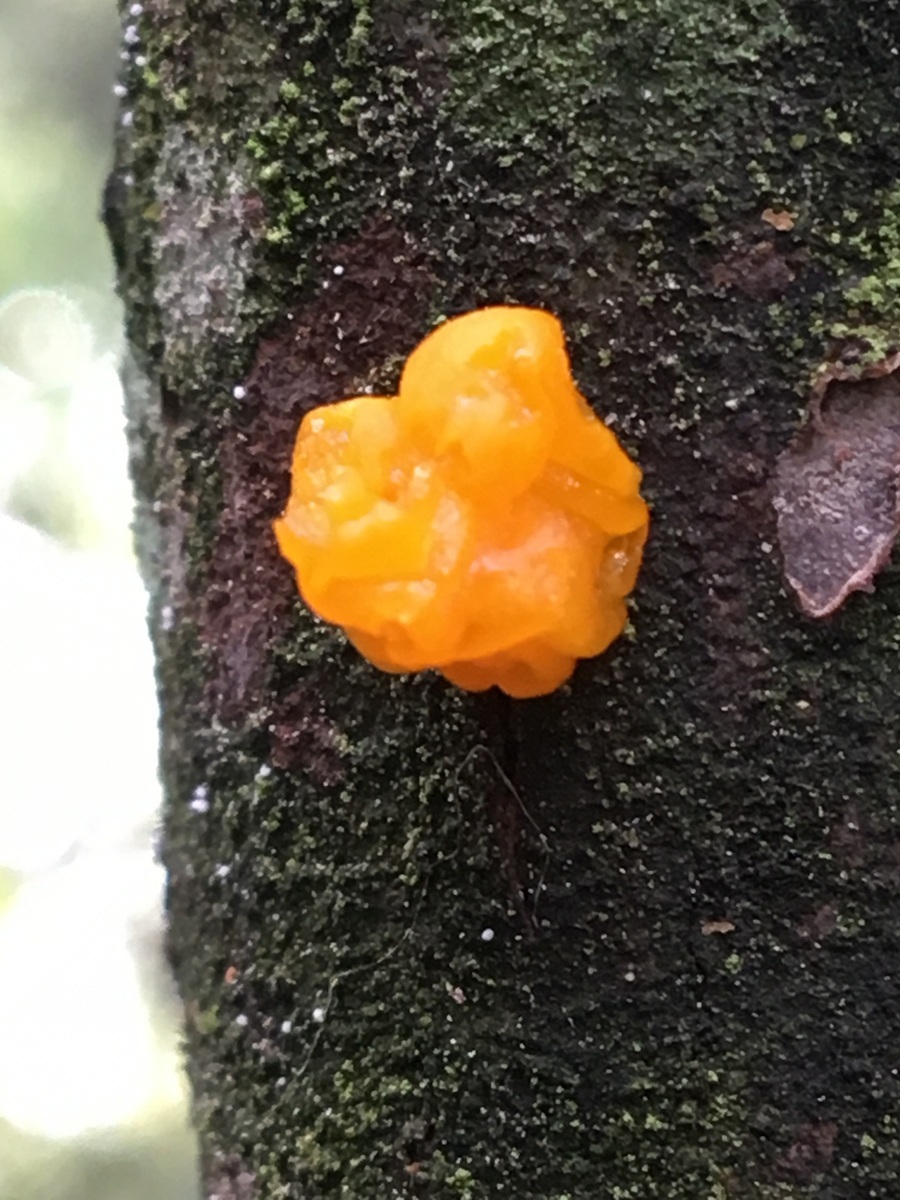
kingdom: Fungi
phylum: Basidiomycota
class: Tremellomycetes
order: Tremellales
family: Tremellaceae
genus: Tremella
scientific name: Tremella mesenterica
